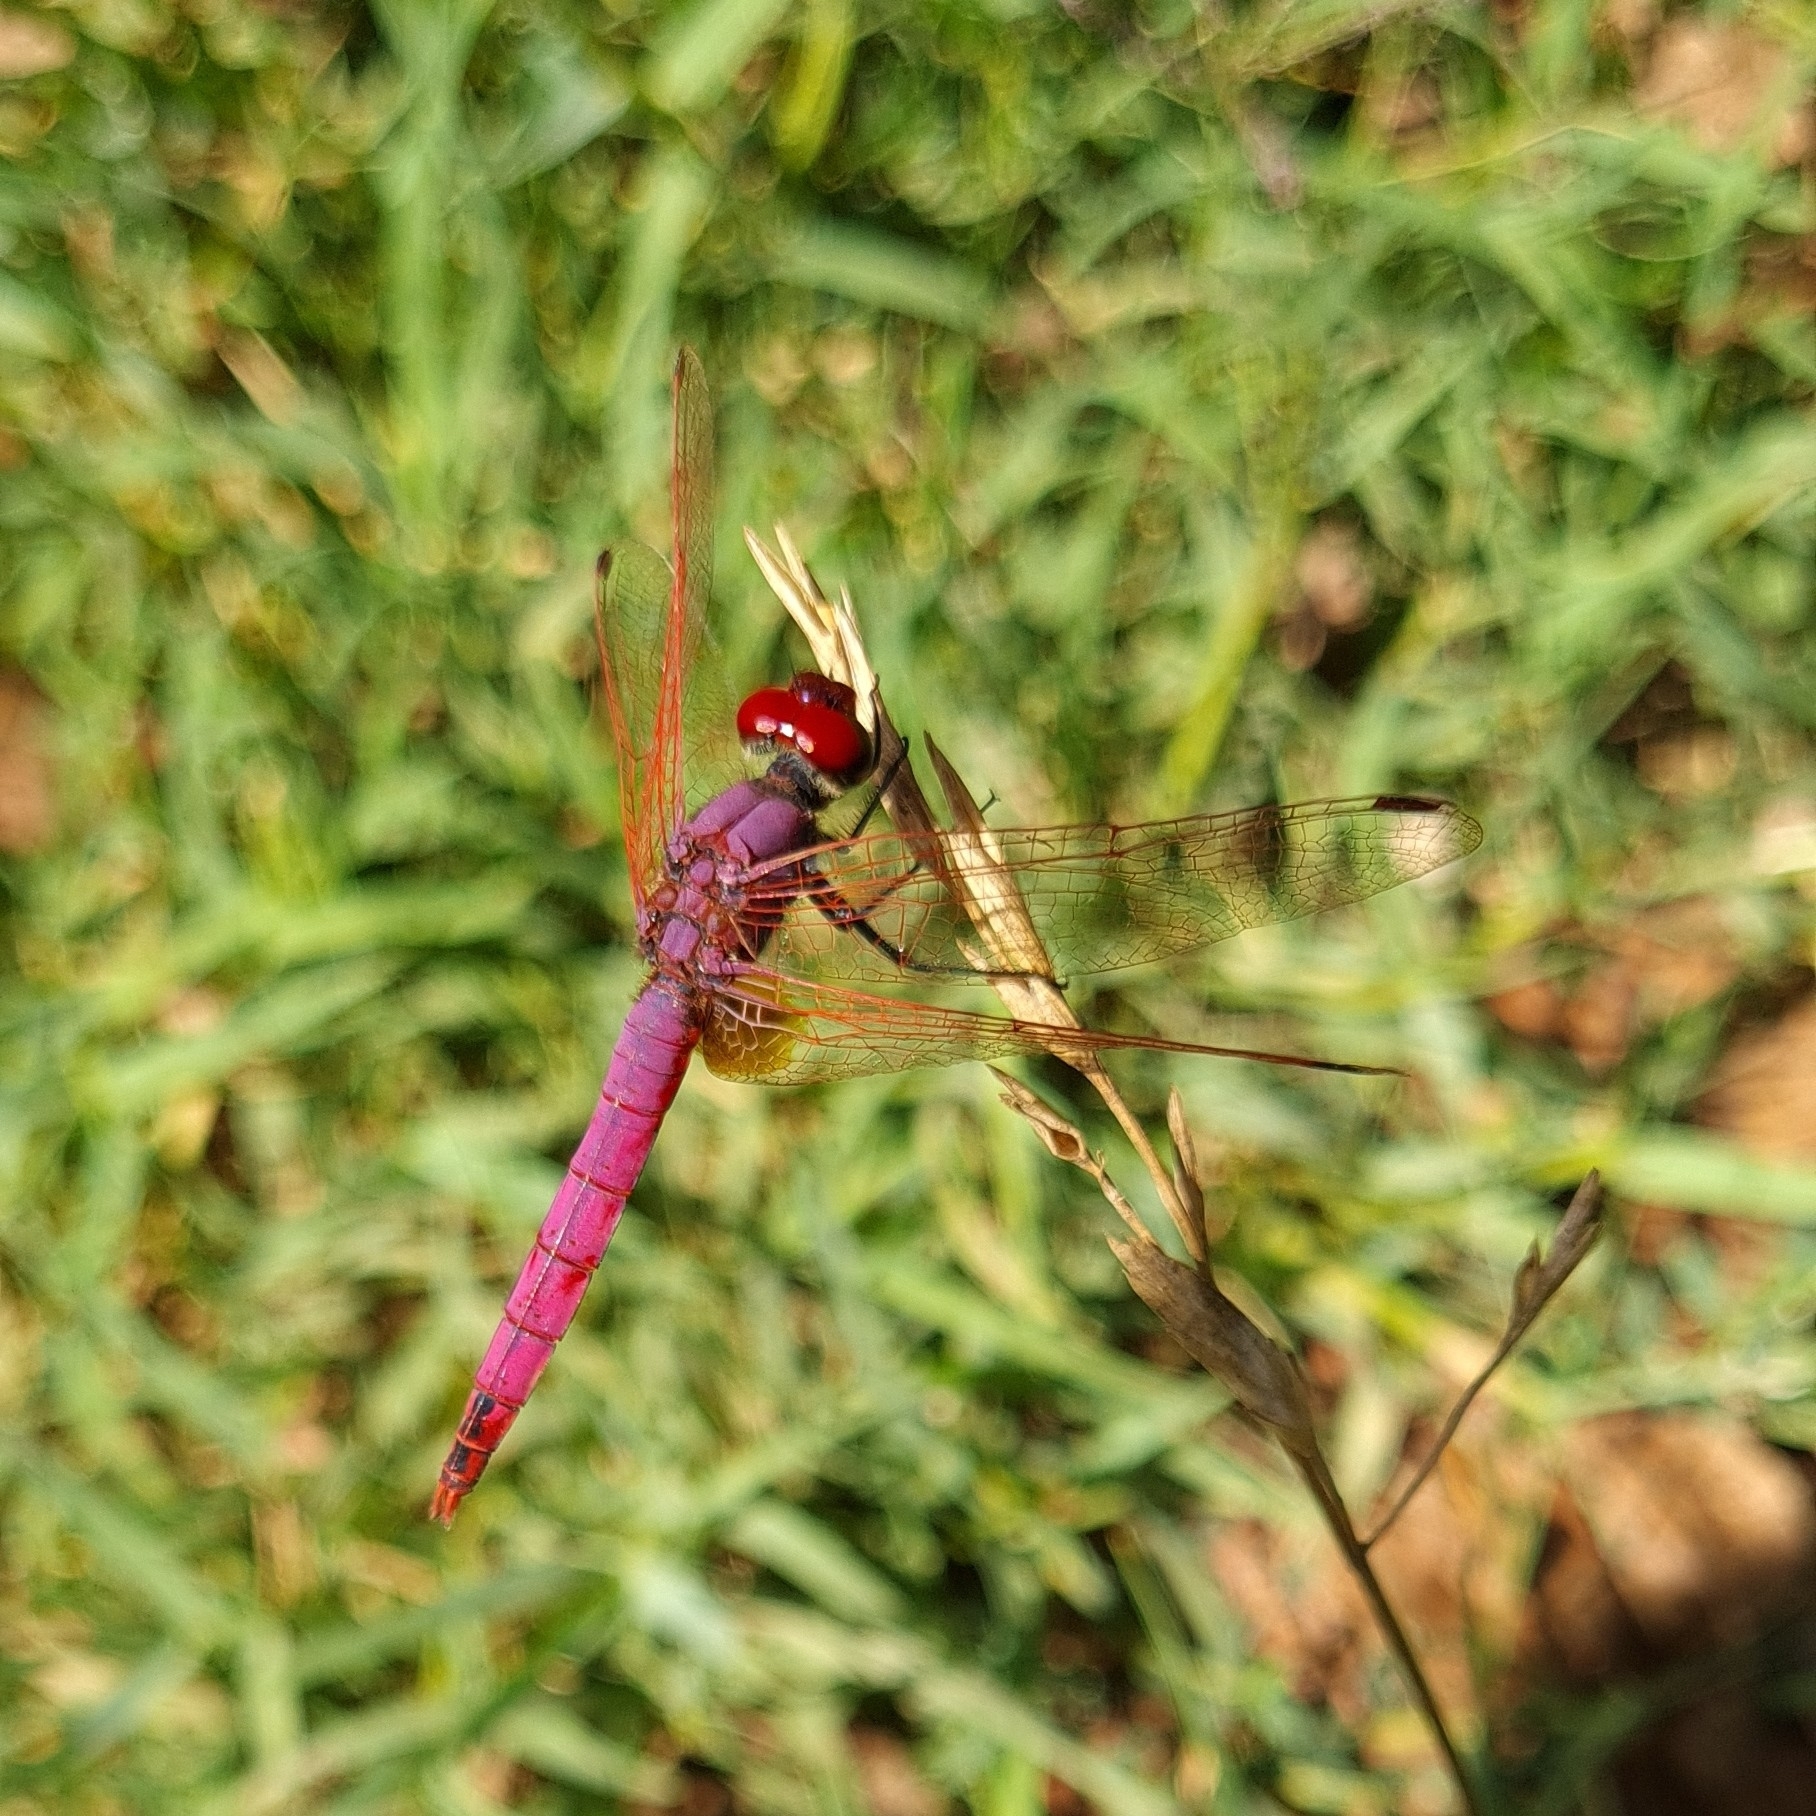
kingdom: Animalia
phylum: Arthropoda
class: Insecta
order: Odonata
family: Libellulidae
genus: Trithemis
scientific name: Trithemis annulata
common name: Violet dropwing
